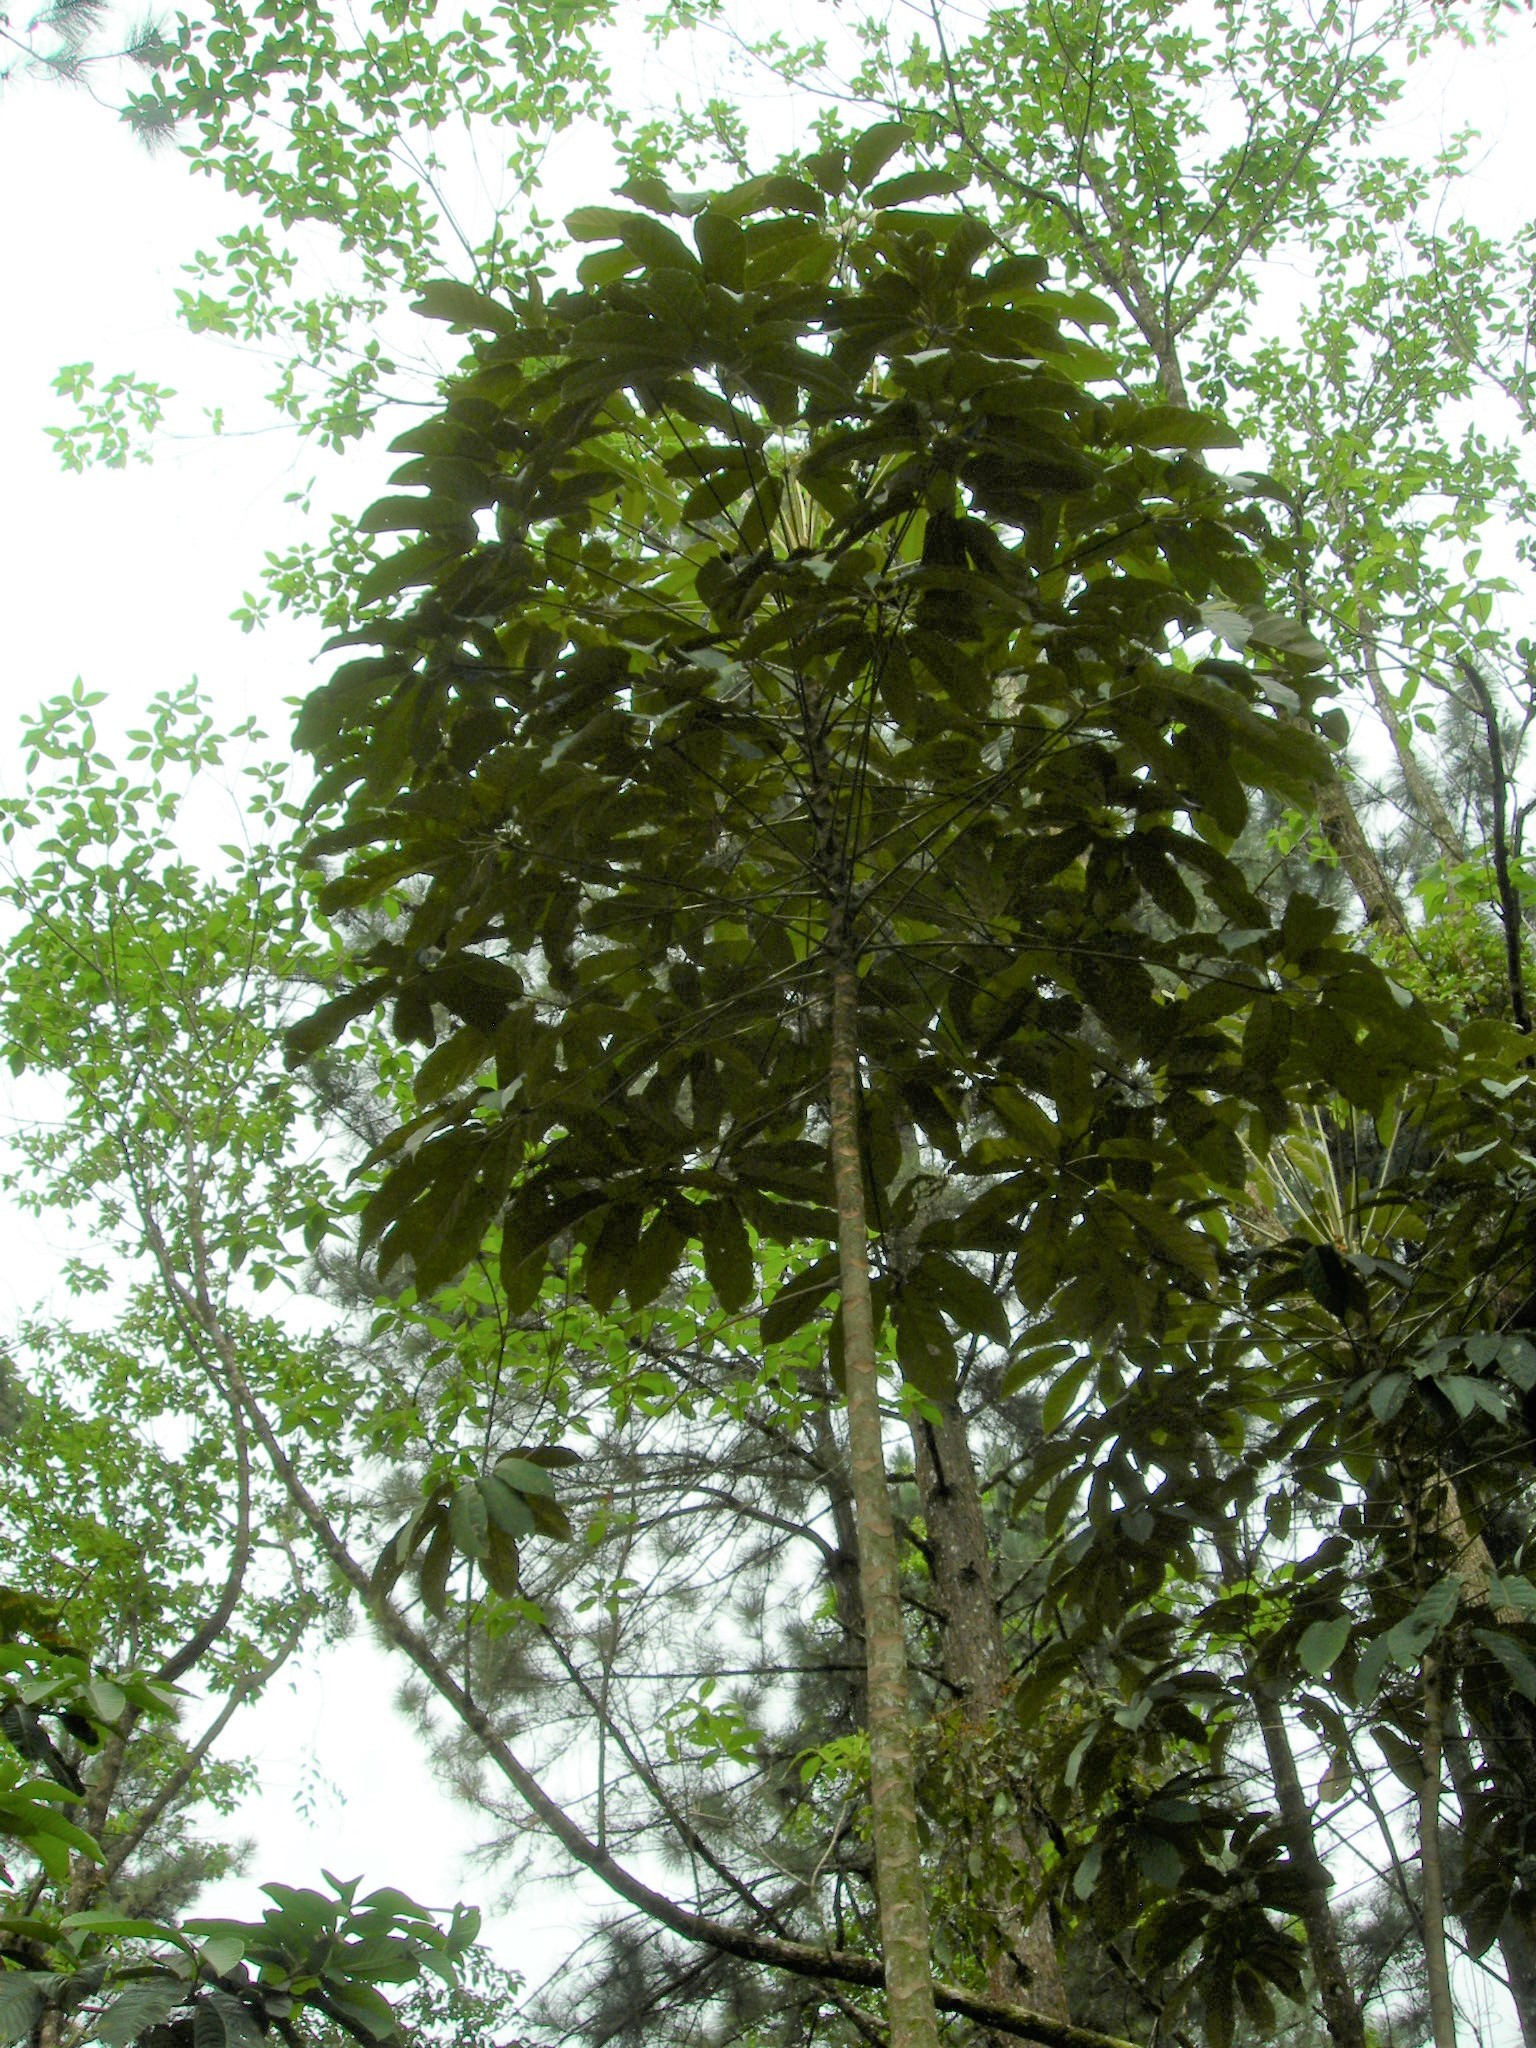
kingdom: Plantae
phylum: Tracheophyta
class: Magnoliopsida
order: Apiales
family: Araliaceae
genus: Didymopanax
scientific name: Didymopanax morototoni
